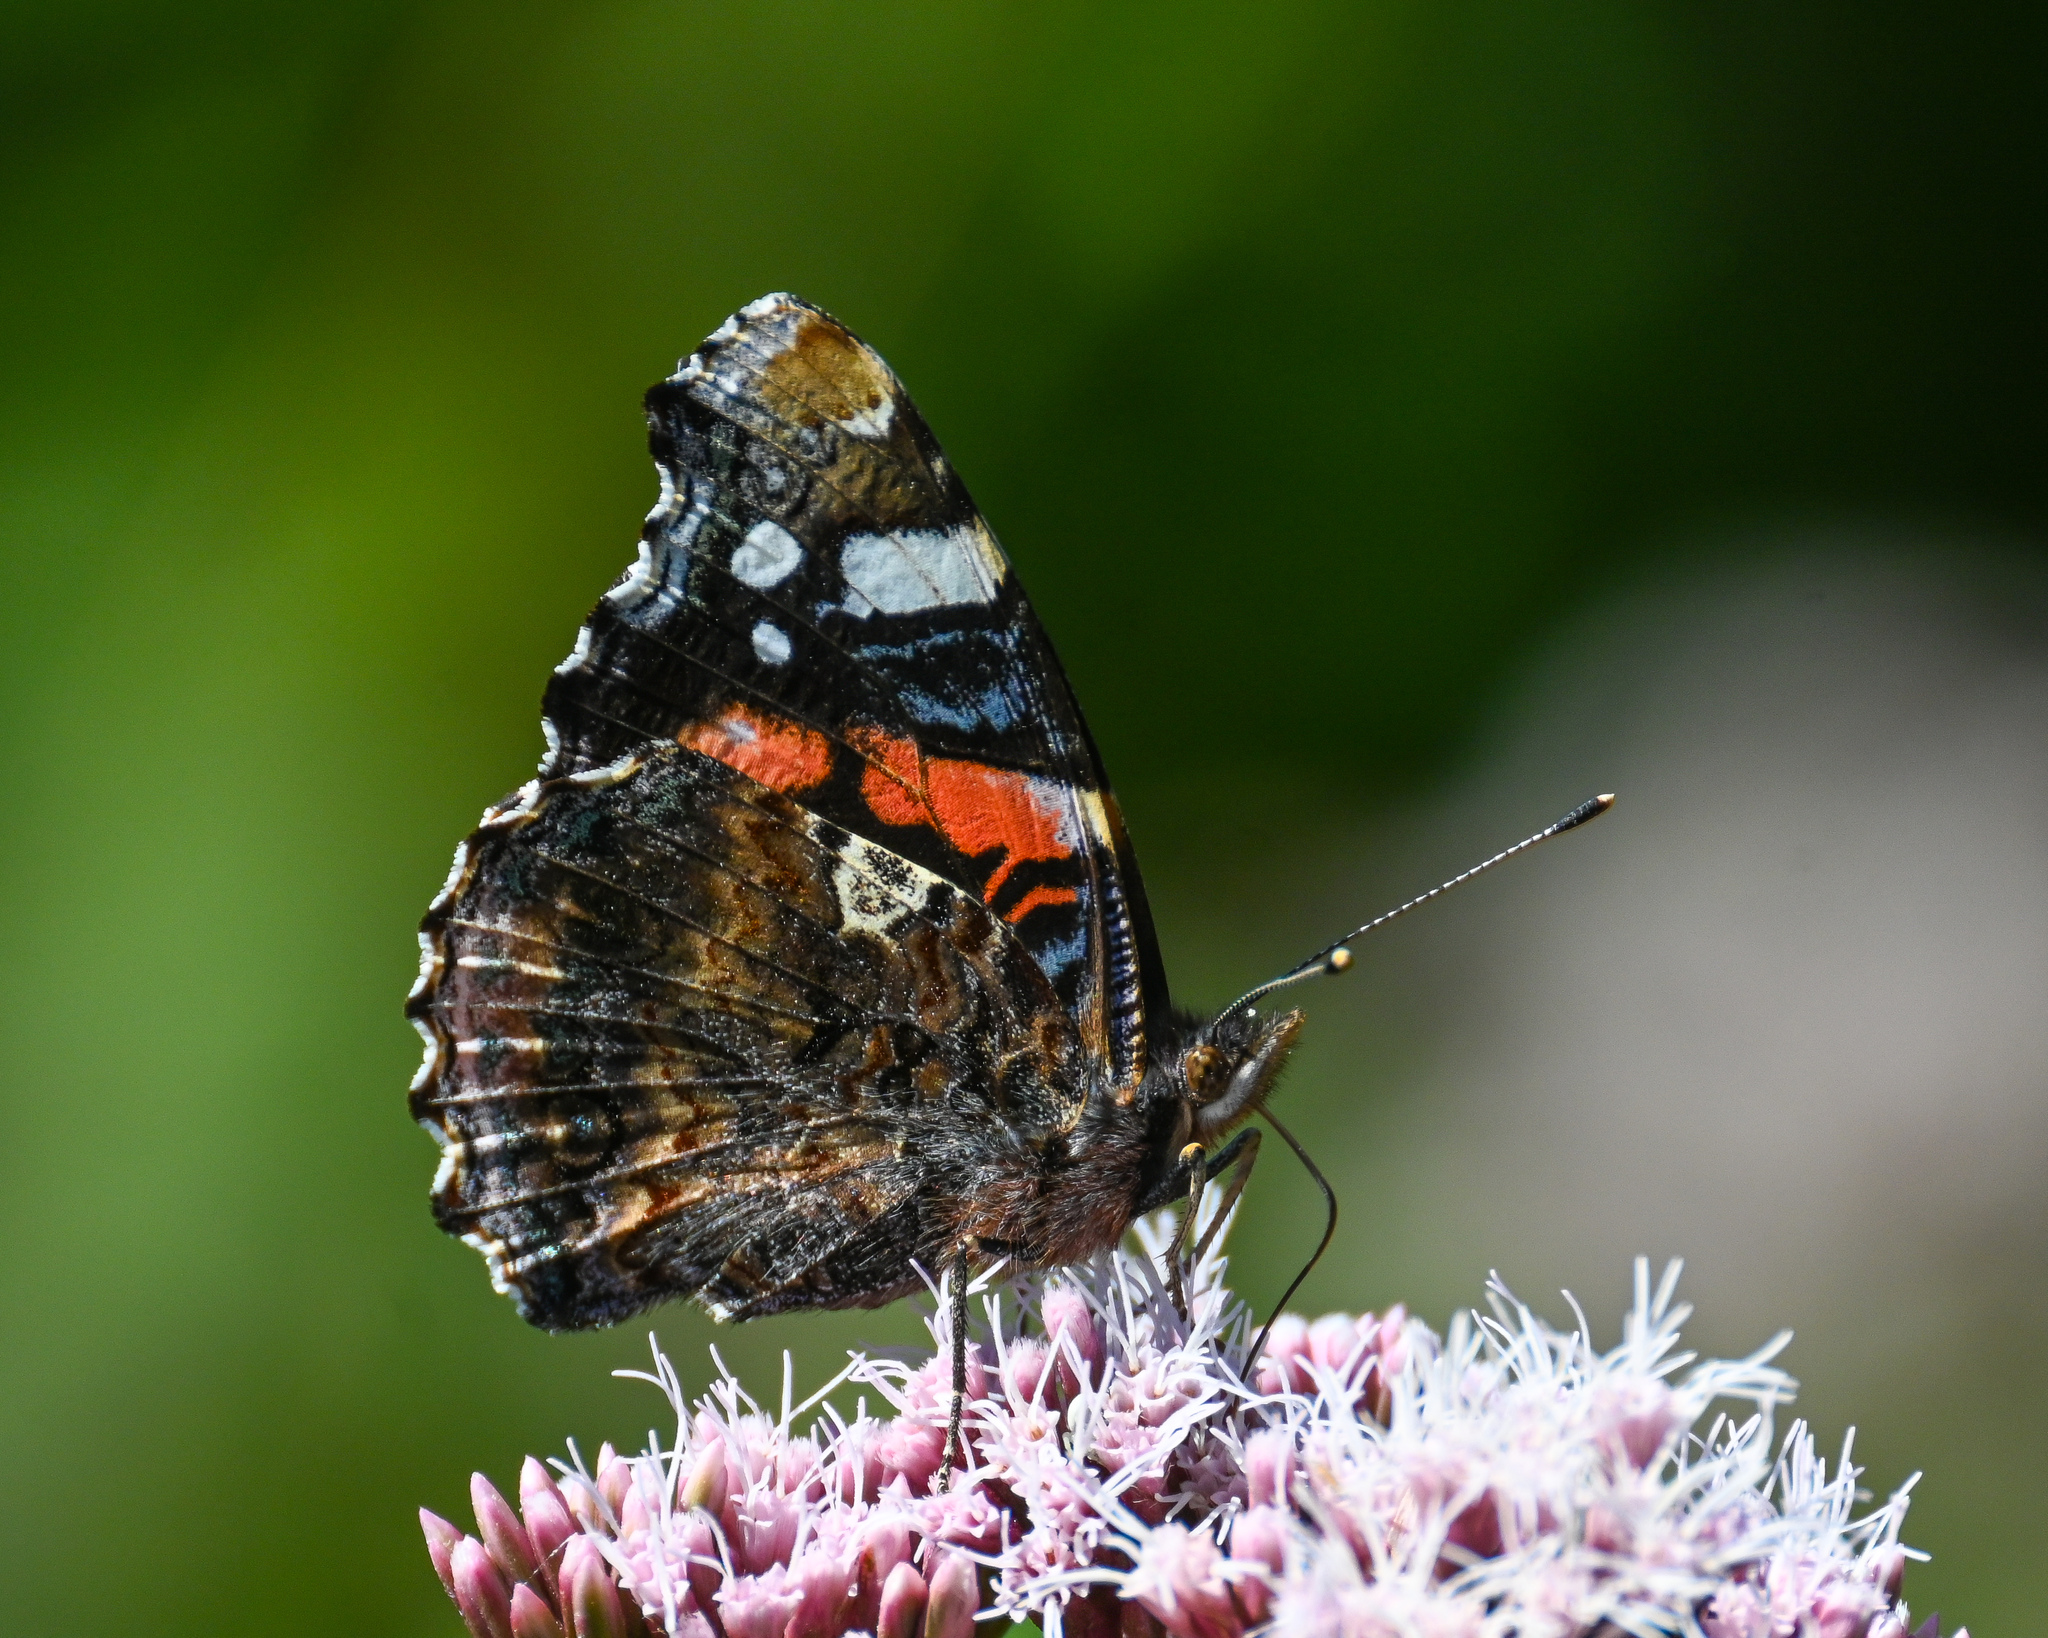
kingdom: Animalia
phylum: Arthropoda
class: Insecta
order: Lepidoptera
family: Nymphalidae
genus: Vanessa
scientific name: Vanessa atalanta
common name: Red admiral
